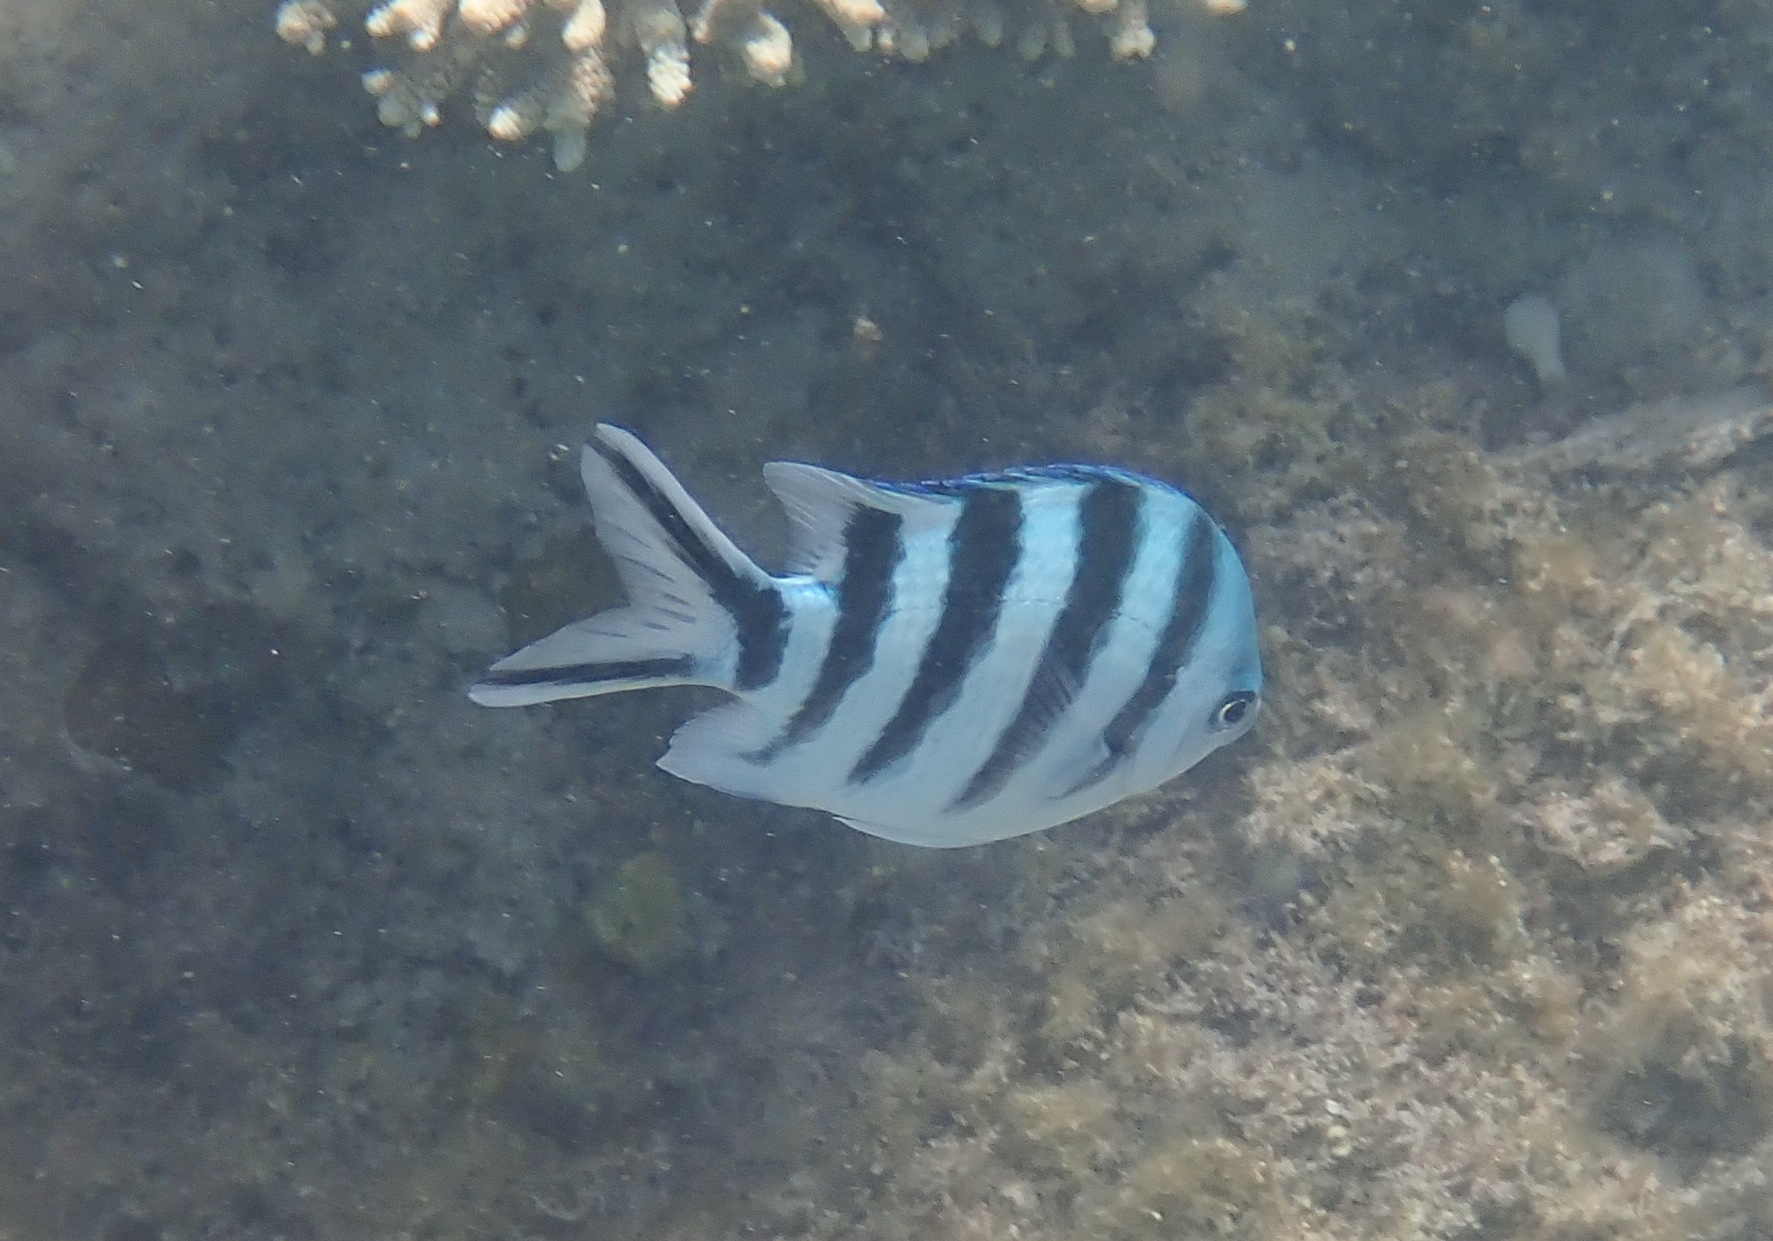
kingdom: Animalia
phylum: Chordata
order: Perciformes
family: Pomacentridae
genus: Abudefduf
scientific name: Abudefduf sexfasciatus
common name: Scissortail sergeant
